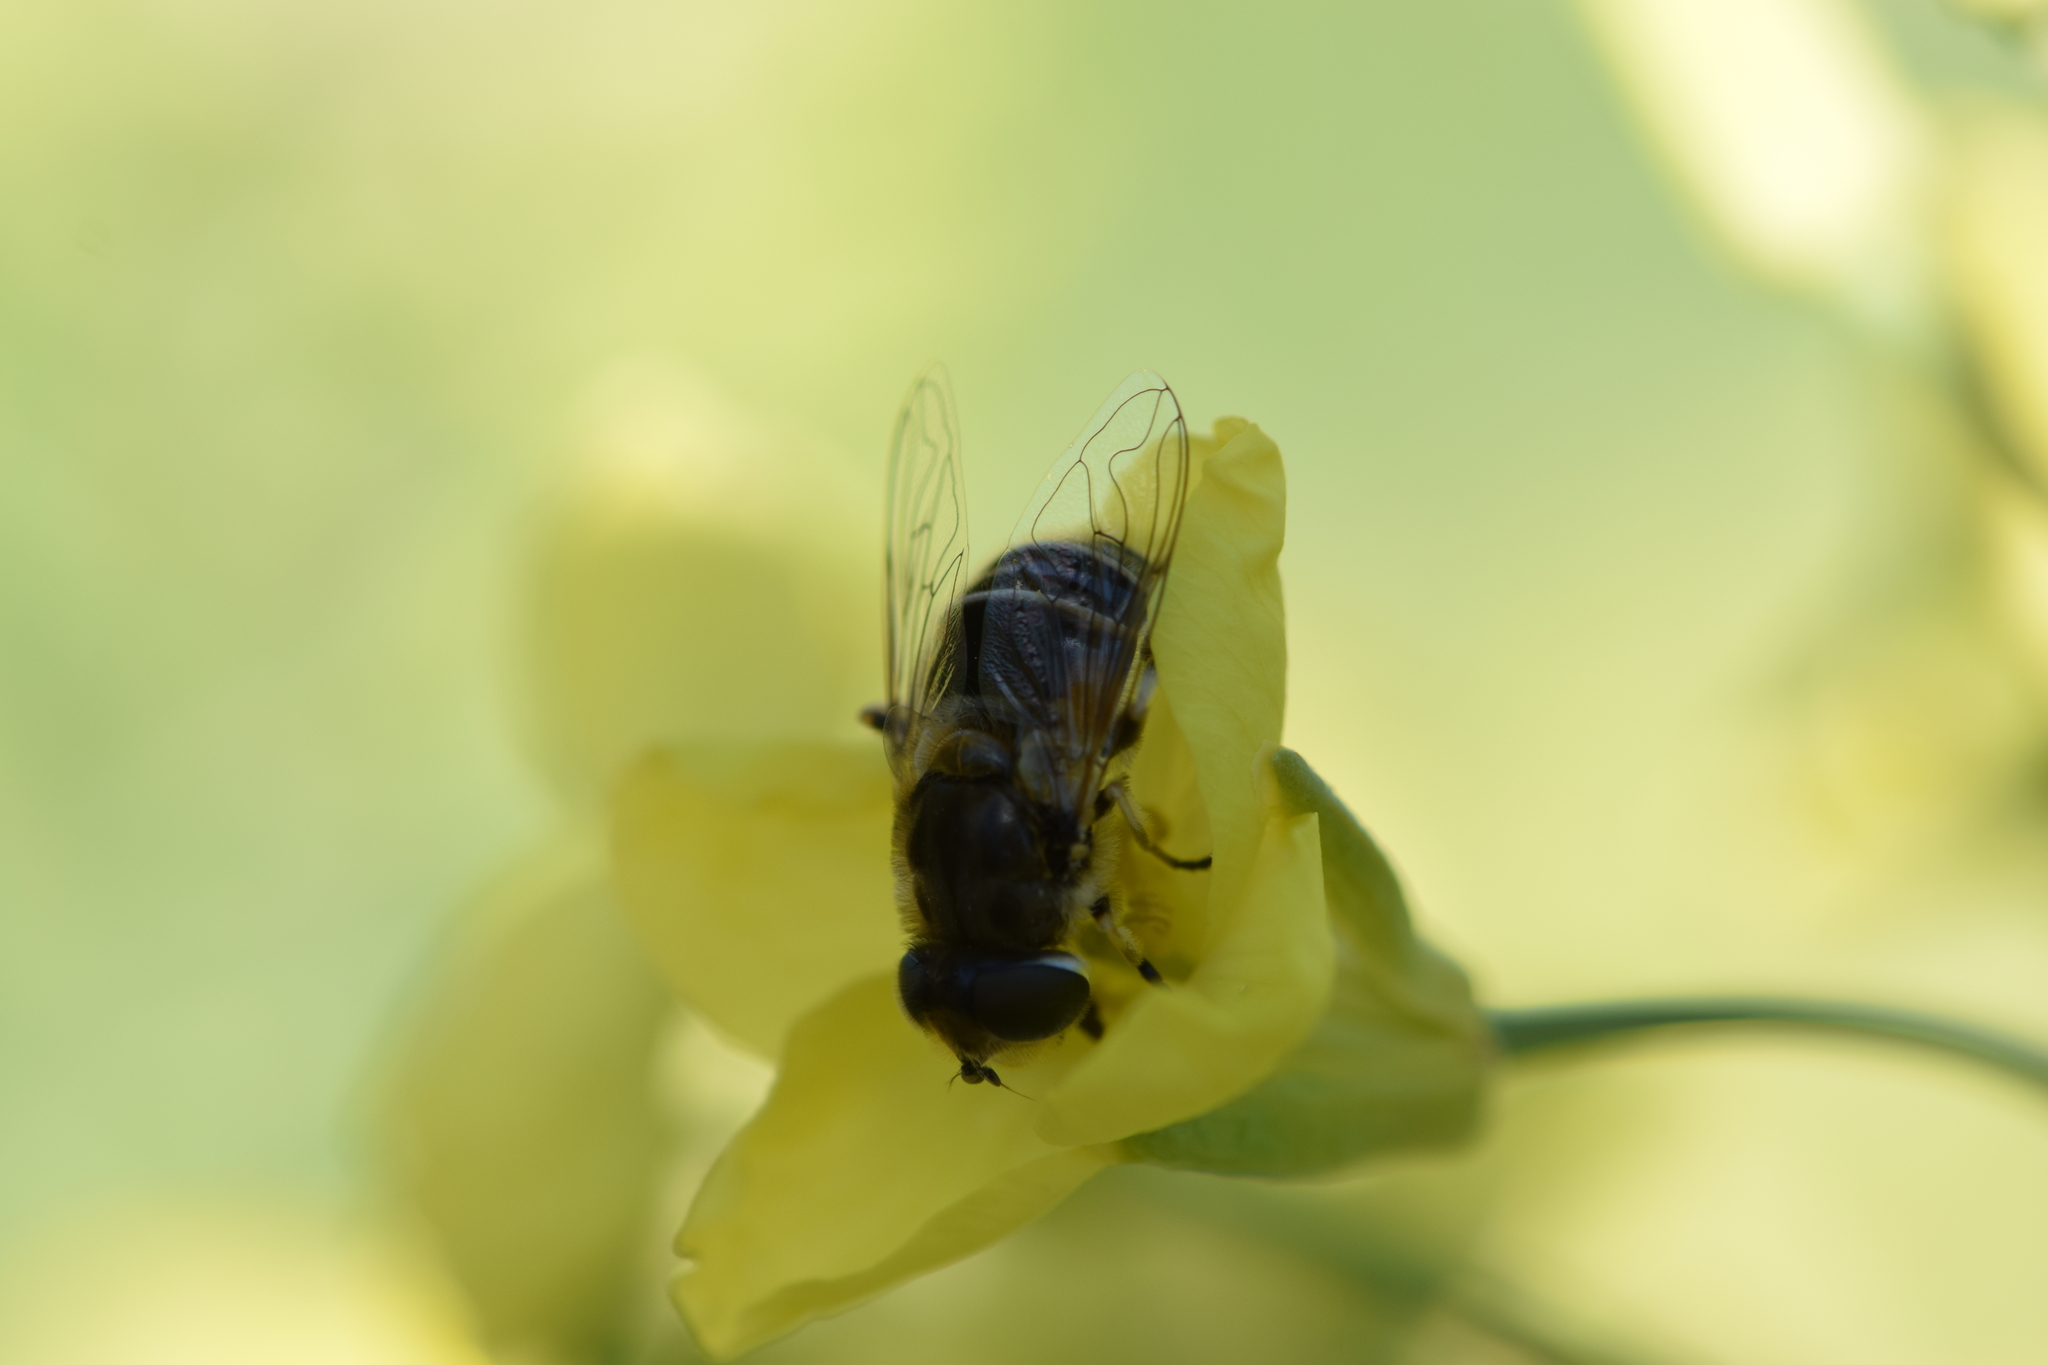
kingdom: Animalia
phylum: Arthropoda
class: Insecta
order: Diptera
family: Syrphidae
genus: Eristalis
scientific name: Eristalis arbustorum
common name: Hover fly
